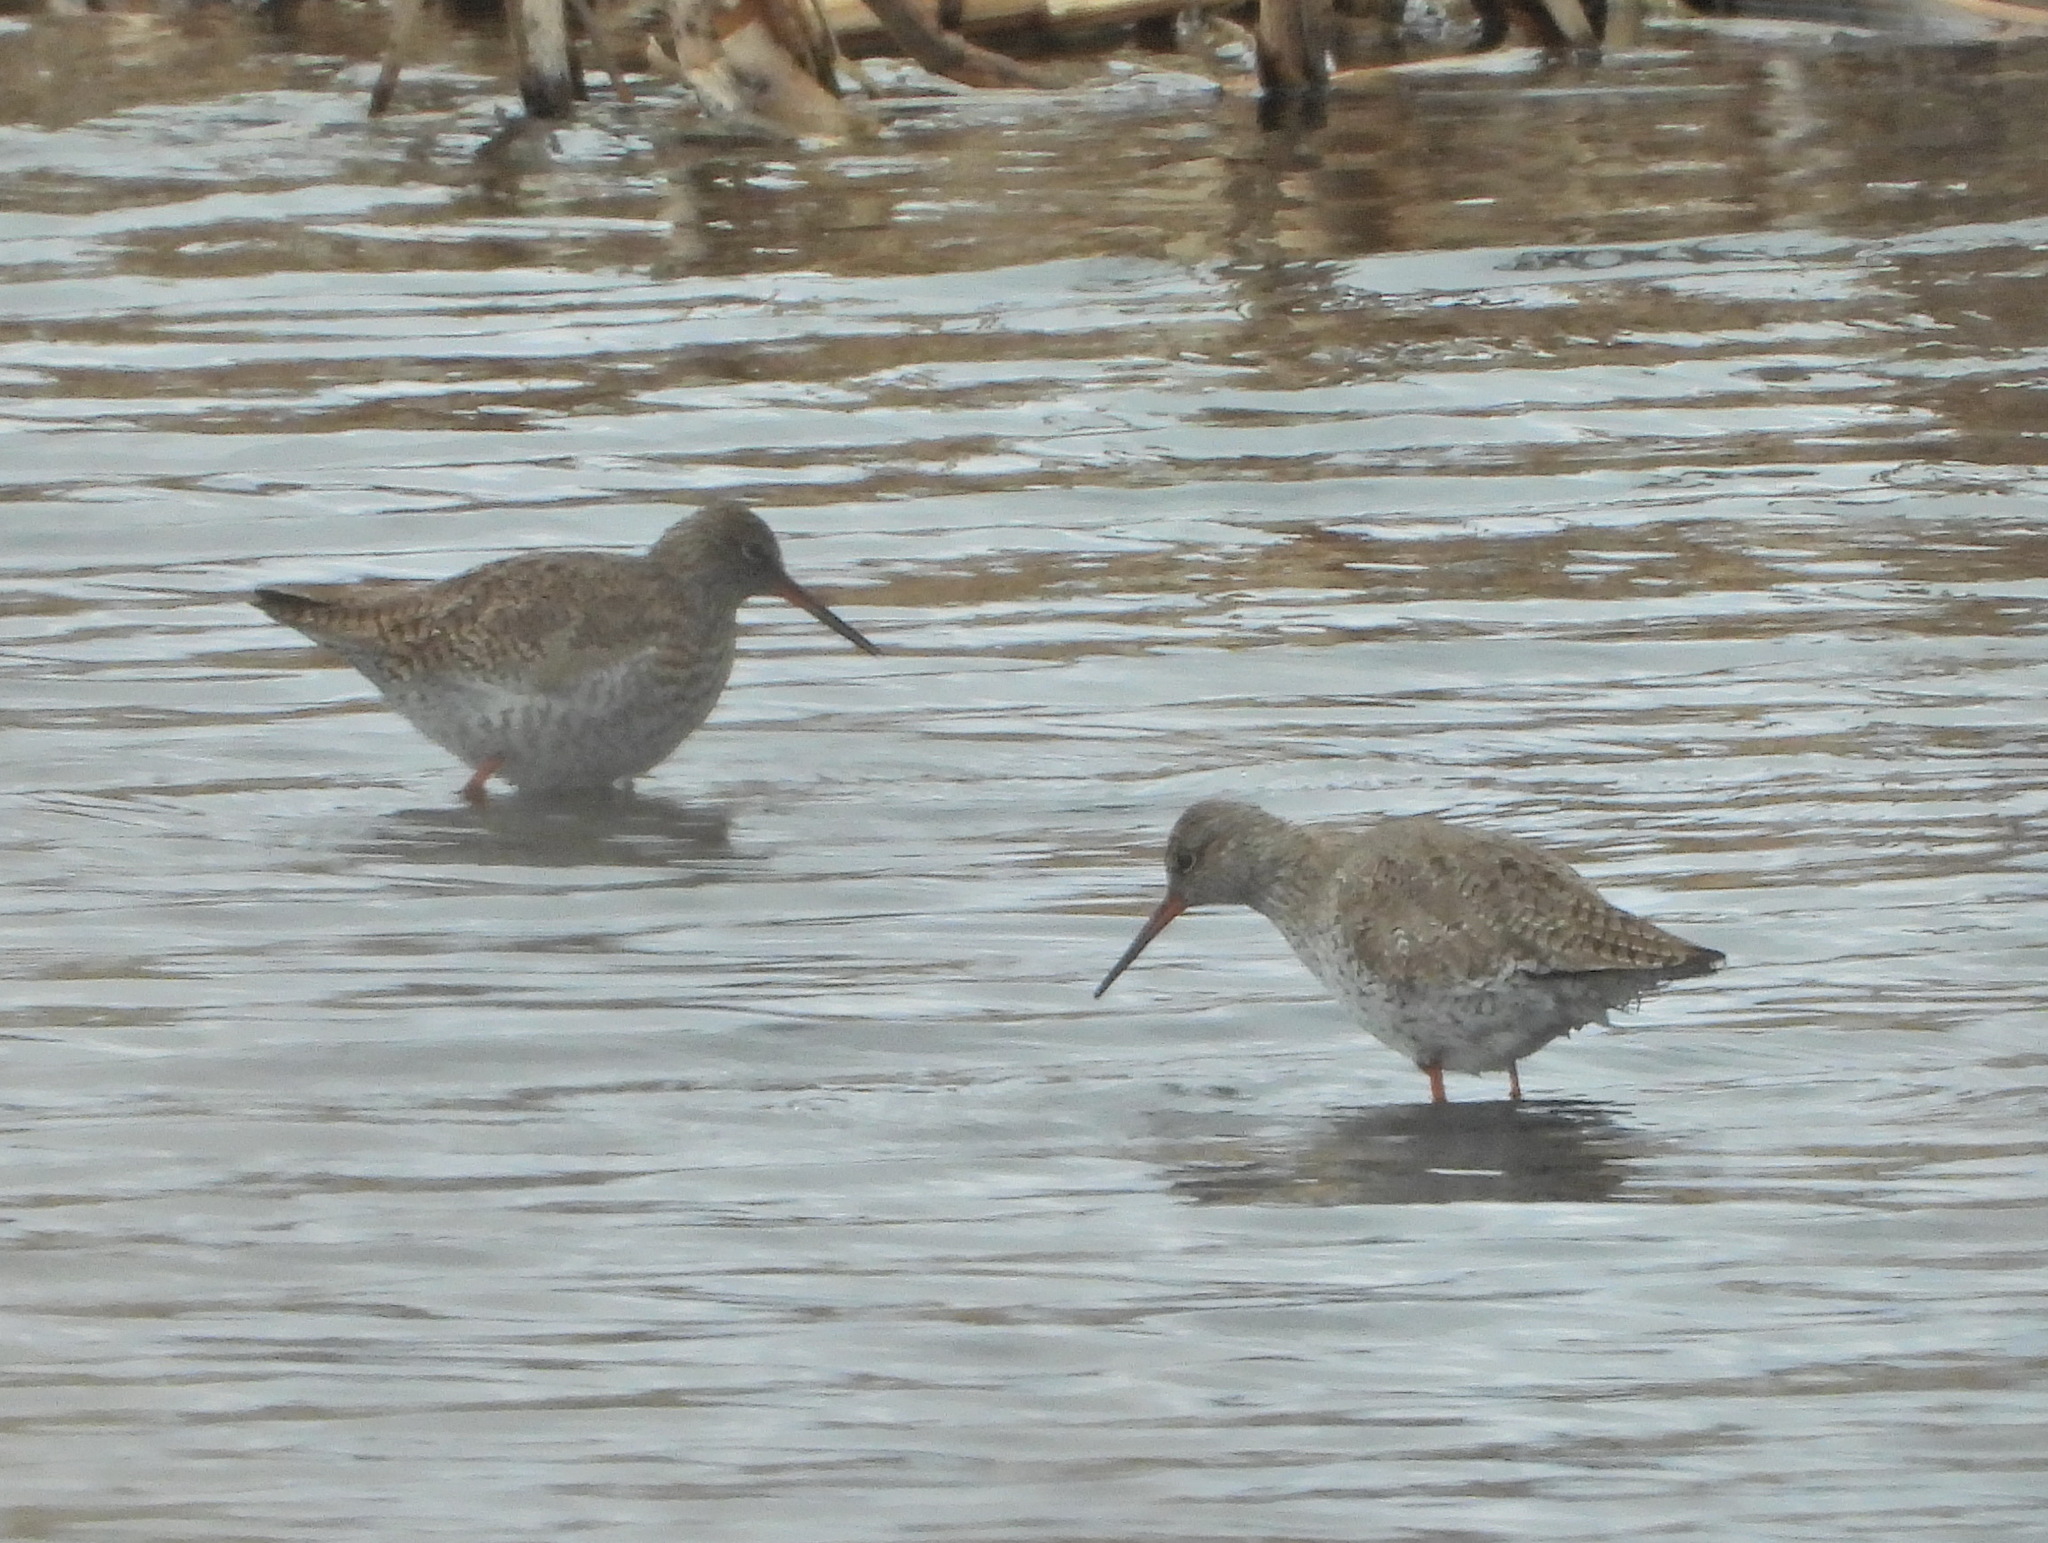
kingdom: Animalia
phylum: Chordata
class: Aves
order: Charadriiformes
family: Scolopacidae
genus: Tringa
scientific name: Tringa totanus
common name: Common redshank
